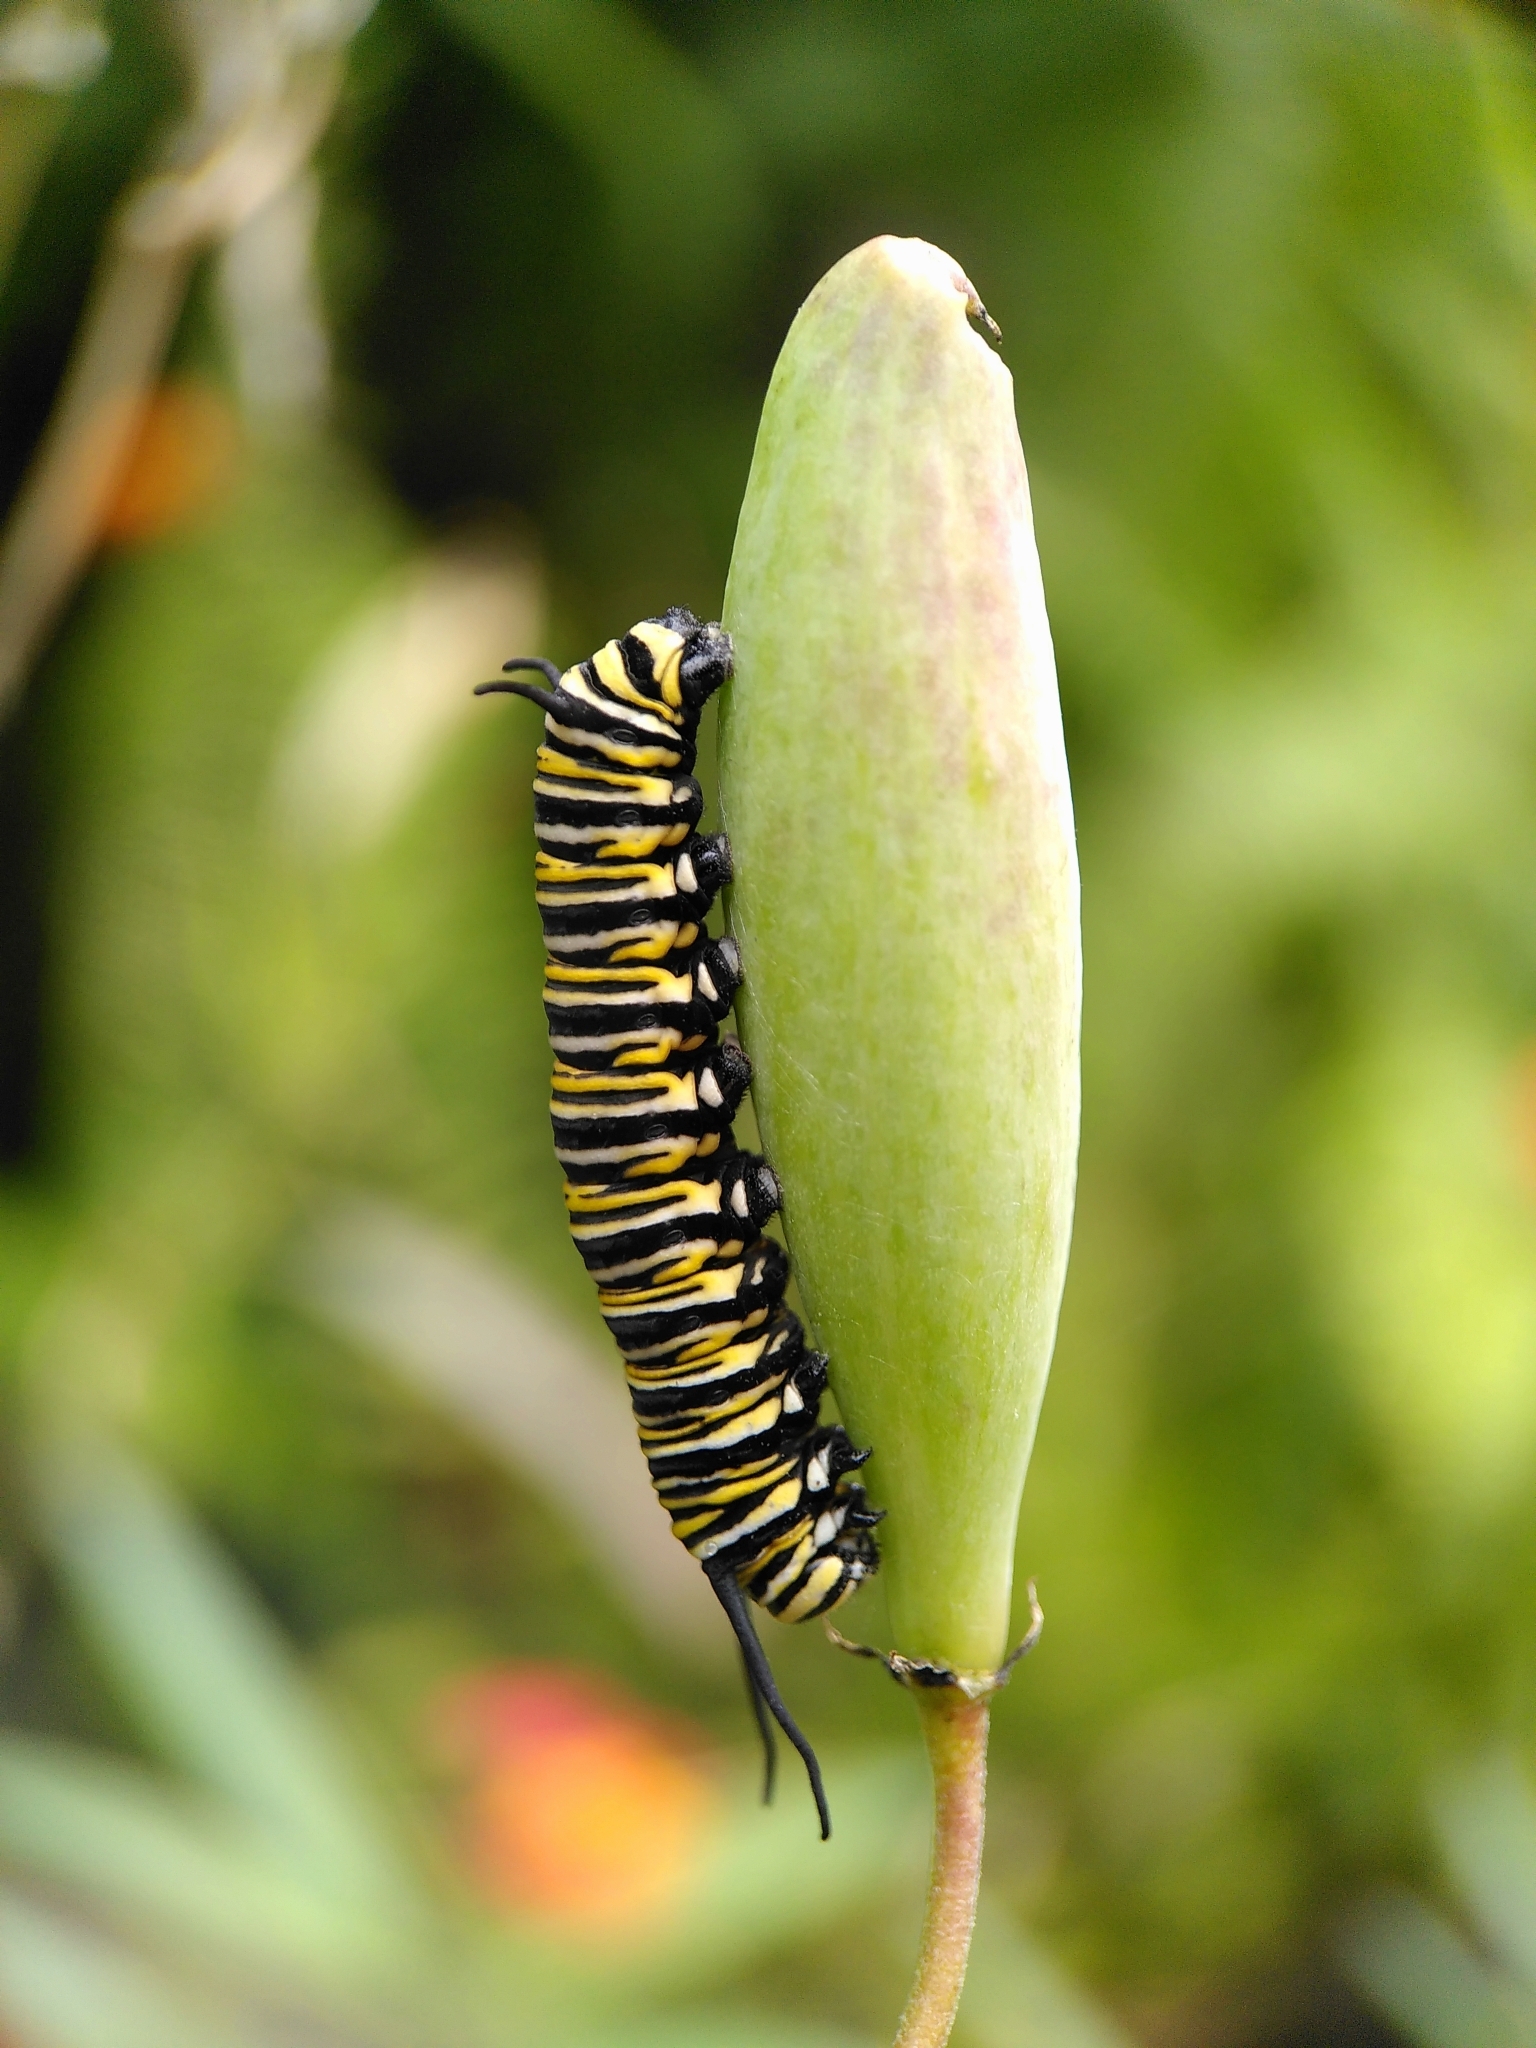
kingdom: Animalia
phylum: Arthropoda
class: Insecta
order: Lepidoptera
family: Nymphalidae
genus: Danaus
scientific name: Danaus plexippus
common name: Monarch
